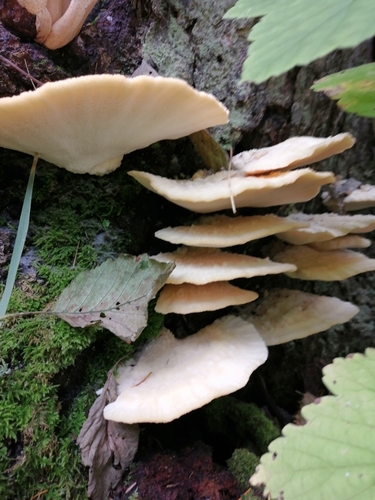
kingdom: Fungi
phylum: Basidiomycota
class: Agaricomycetes
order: Polyporales
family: Fomitopsidaceae
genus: Climacocystis
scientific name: Climacocystis borealis
